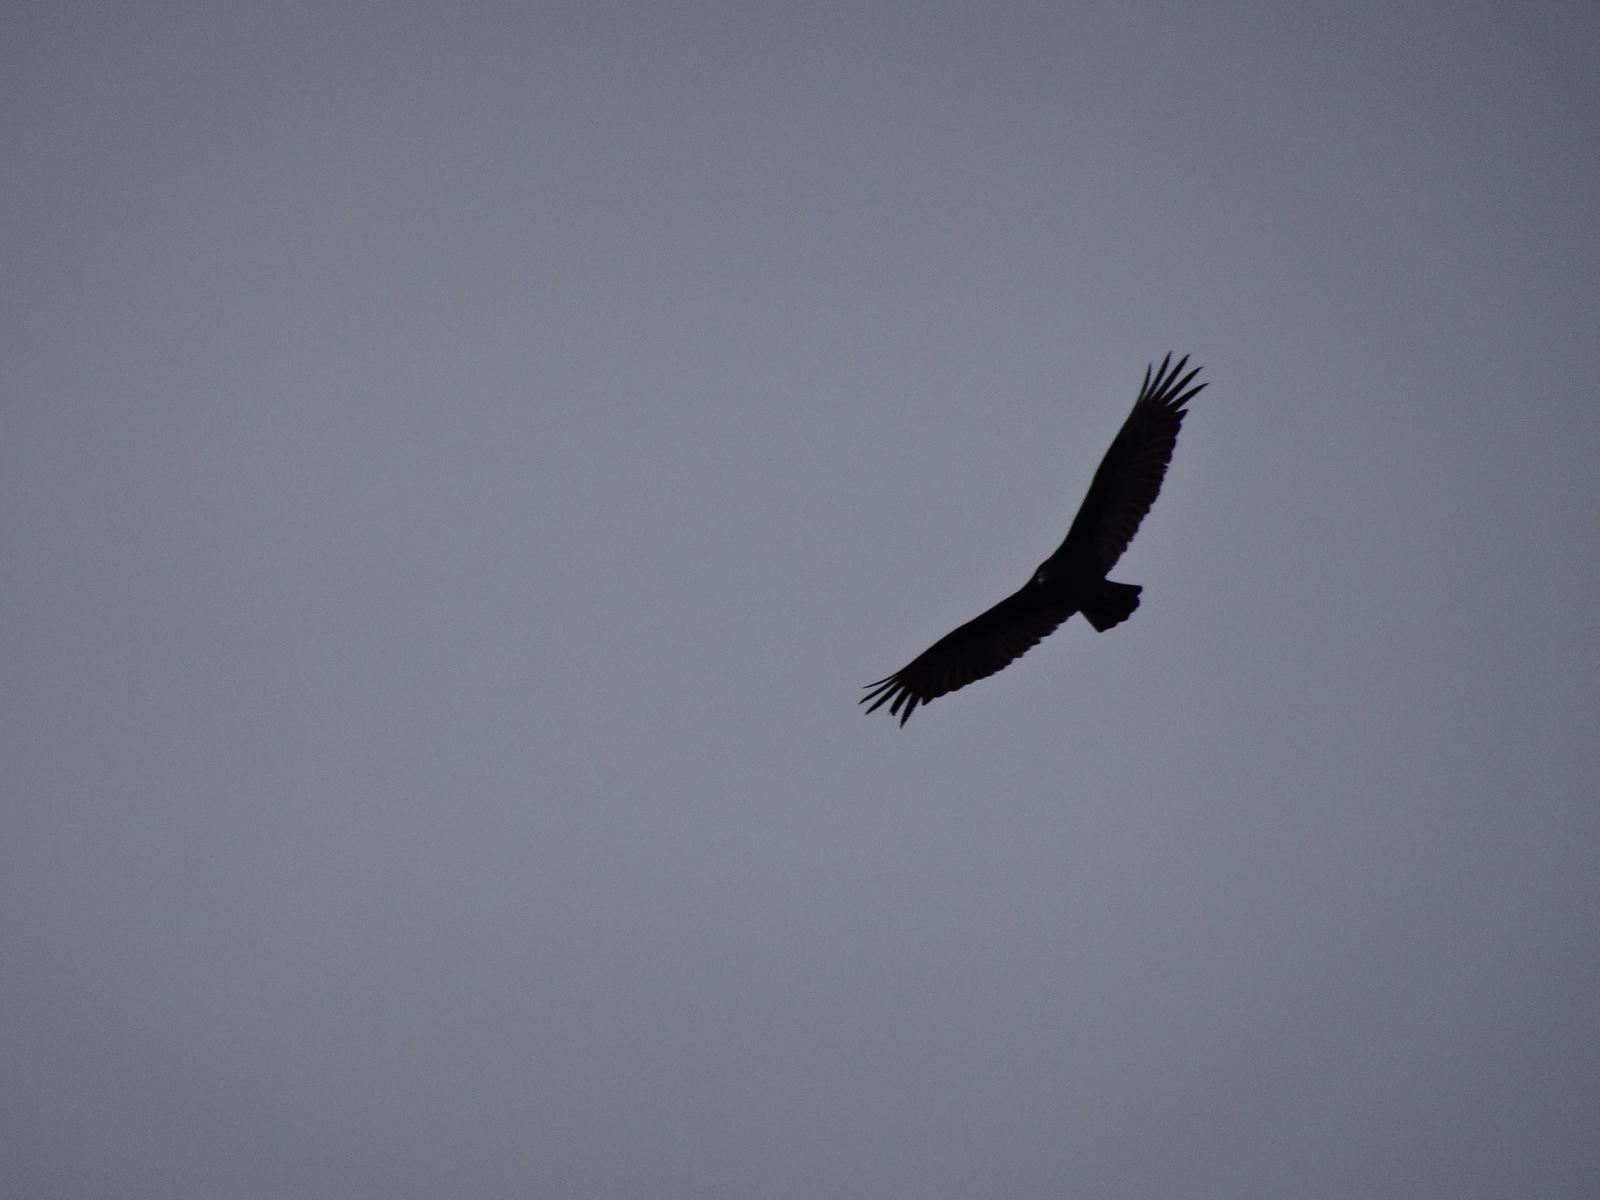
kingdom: Animalia
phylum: Chordata
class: Aves
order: Accipitriformes
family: Cathartidae
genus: Cathartes
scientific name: Cathartes aura
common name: Turkey vulture
